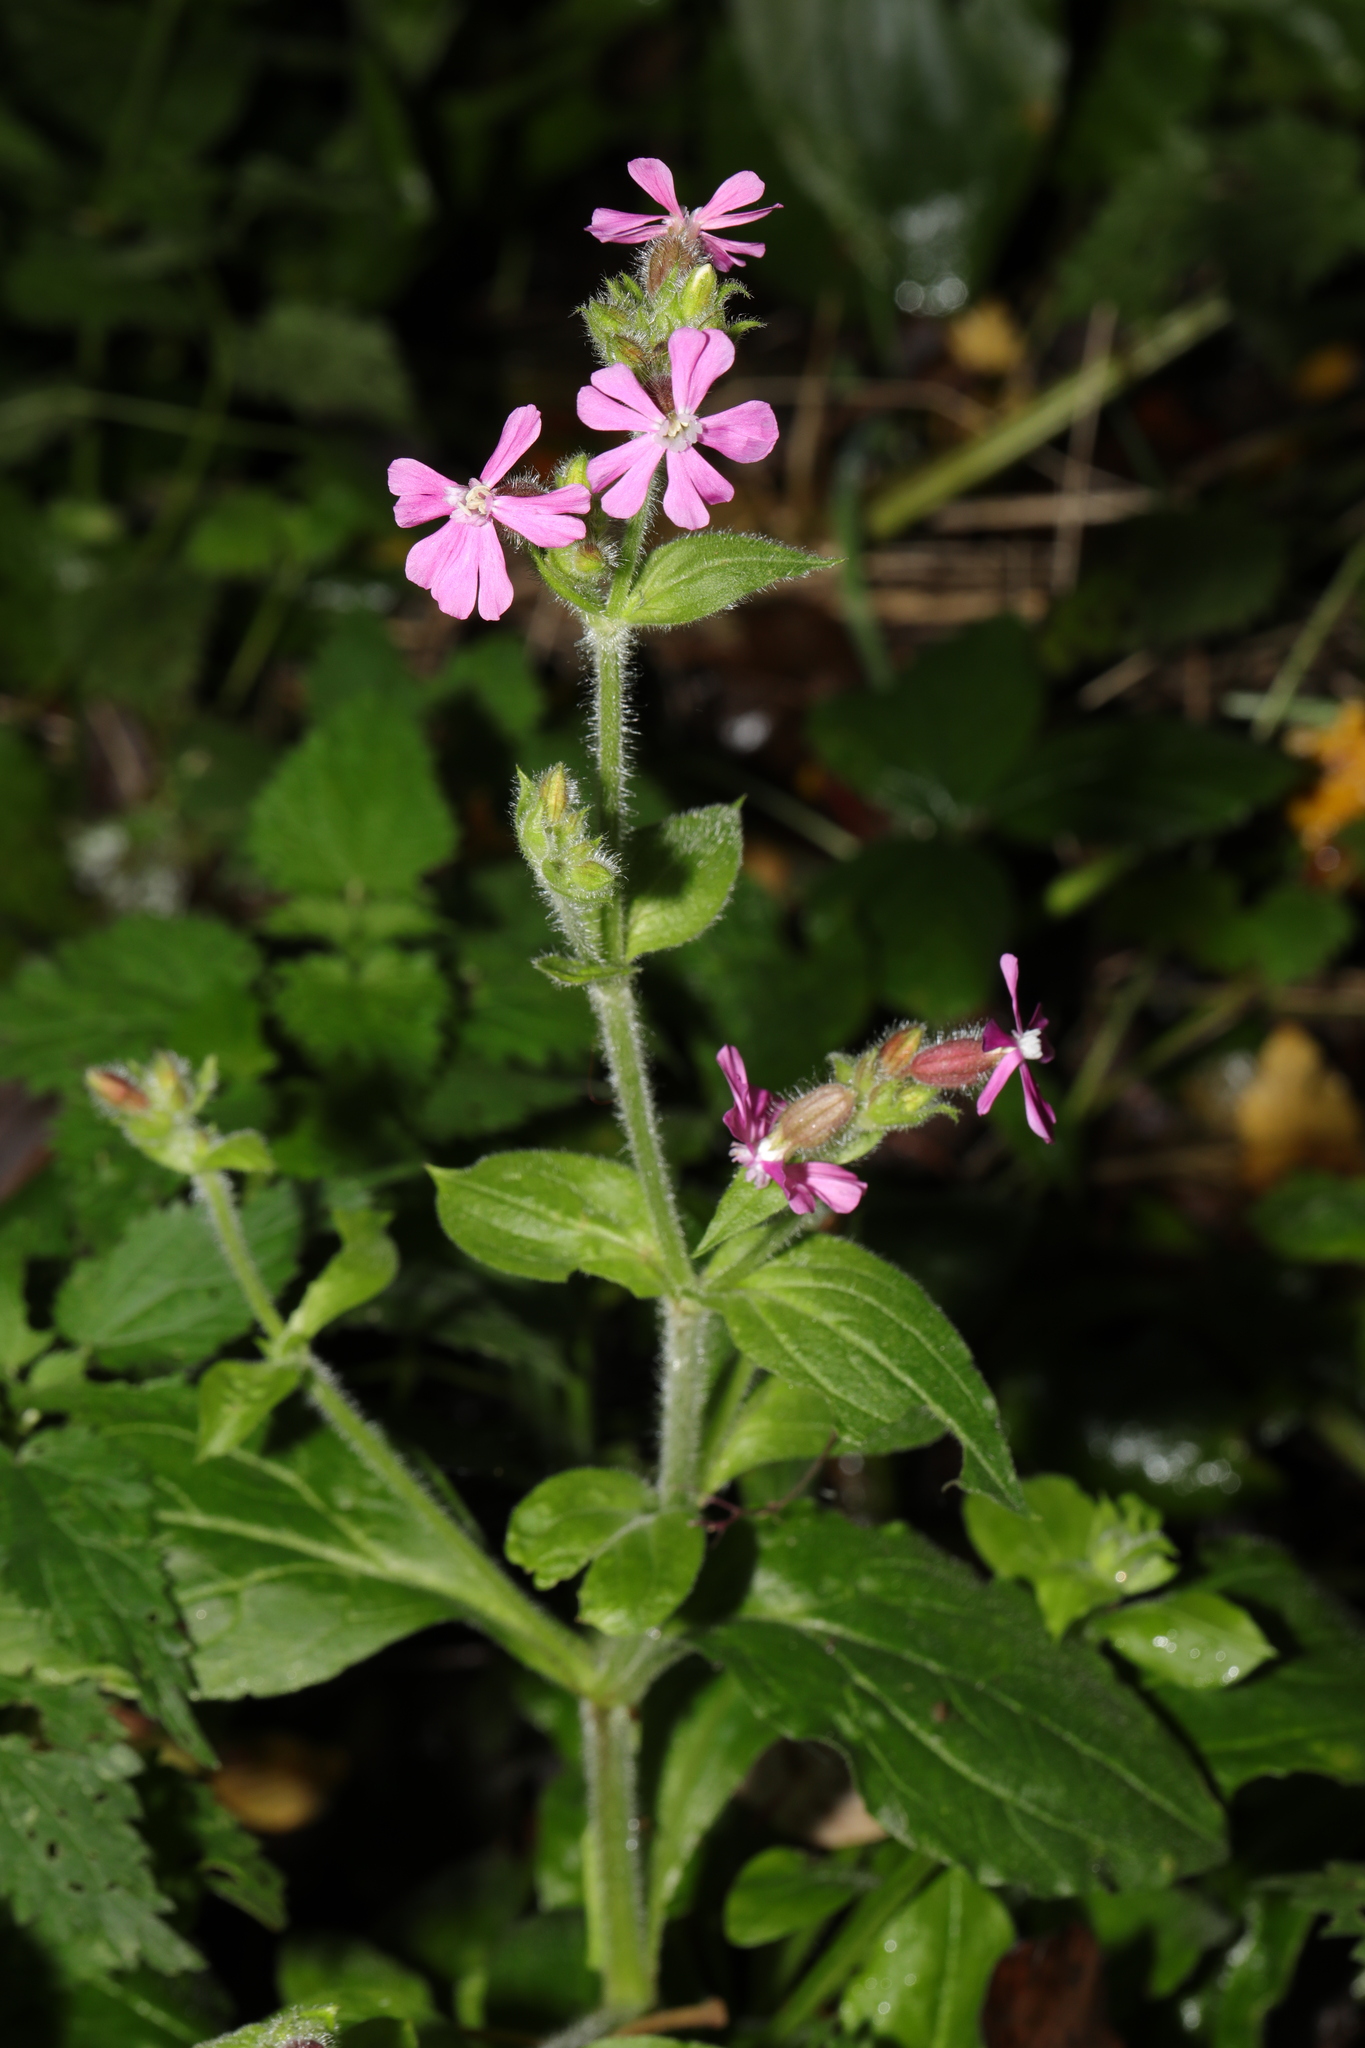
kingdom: Plantae
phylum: Tracheophyta
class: Magnoliopsida
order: Caryophyllales
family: Caryophyllaceae
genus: Silene
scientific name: Silene dioica
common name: Red campion
